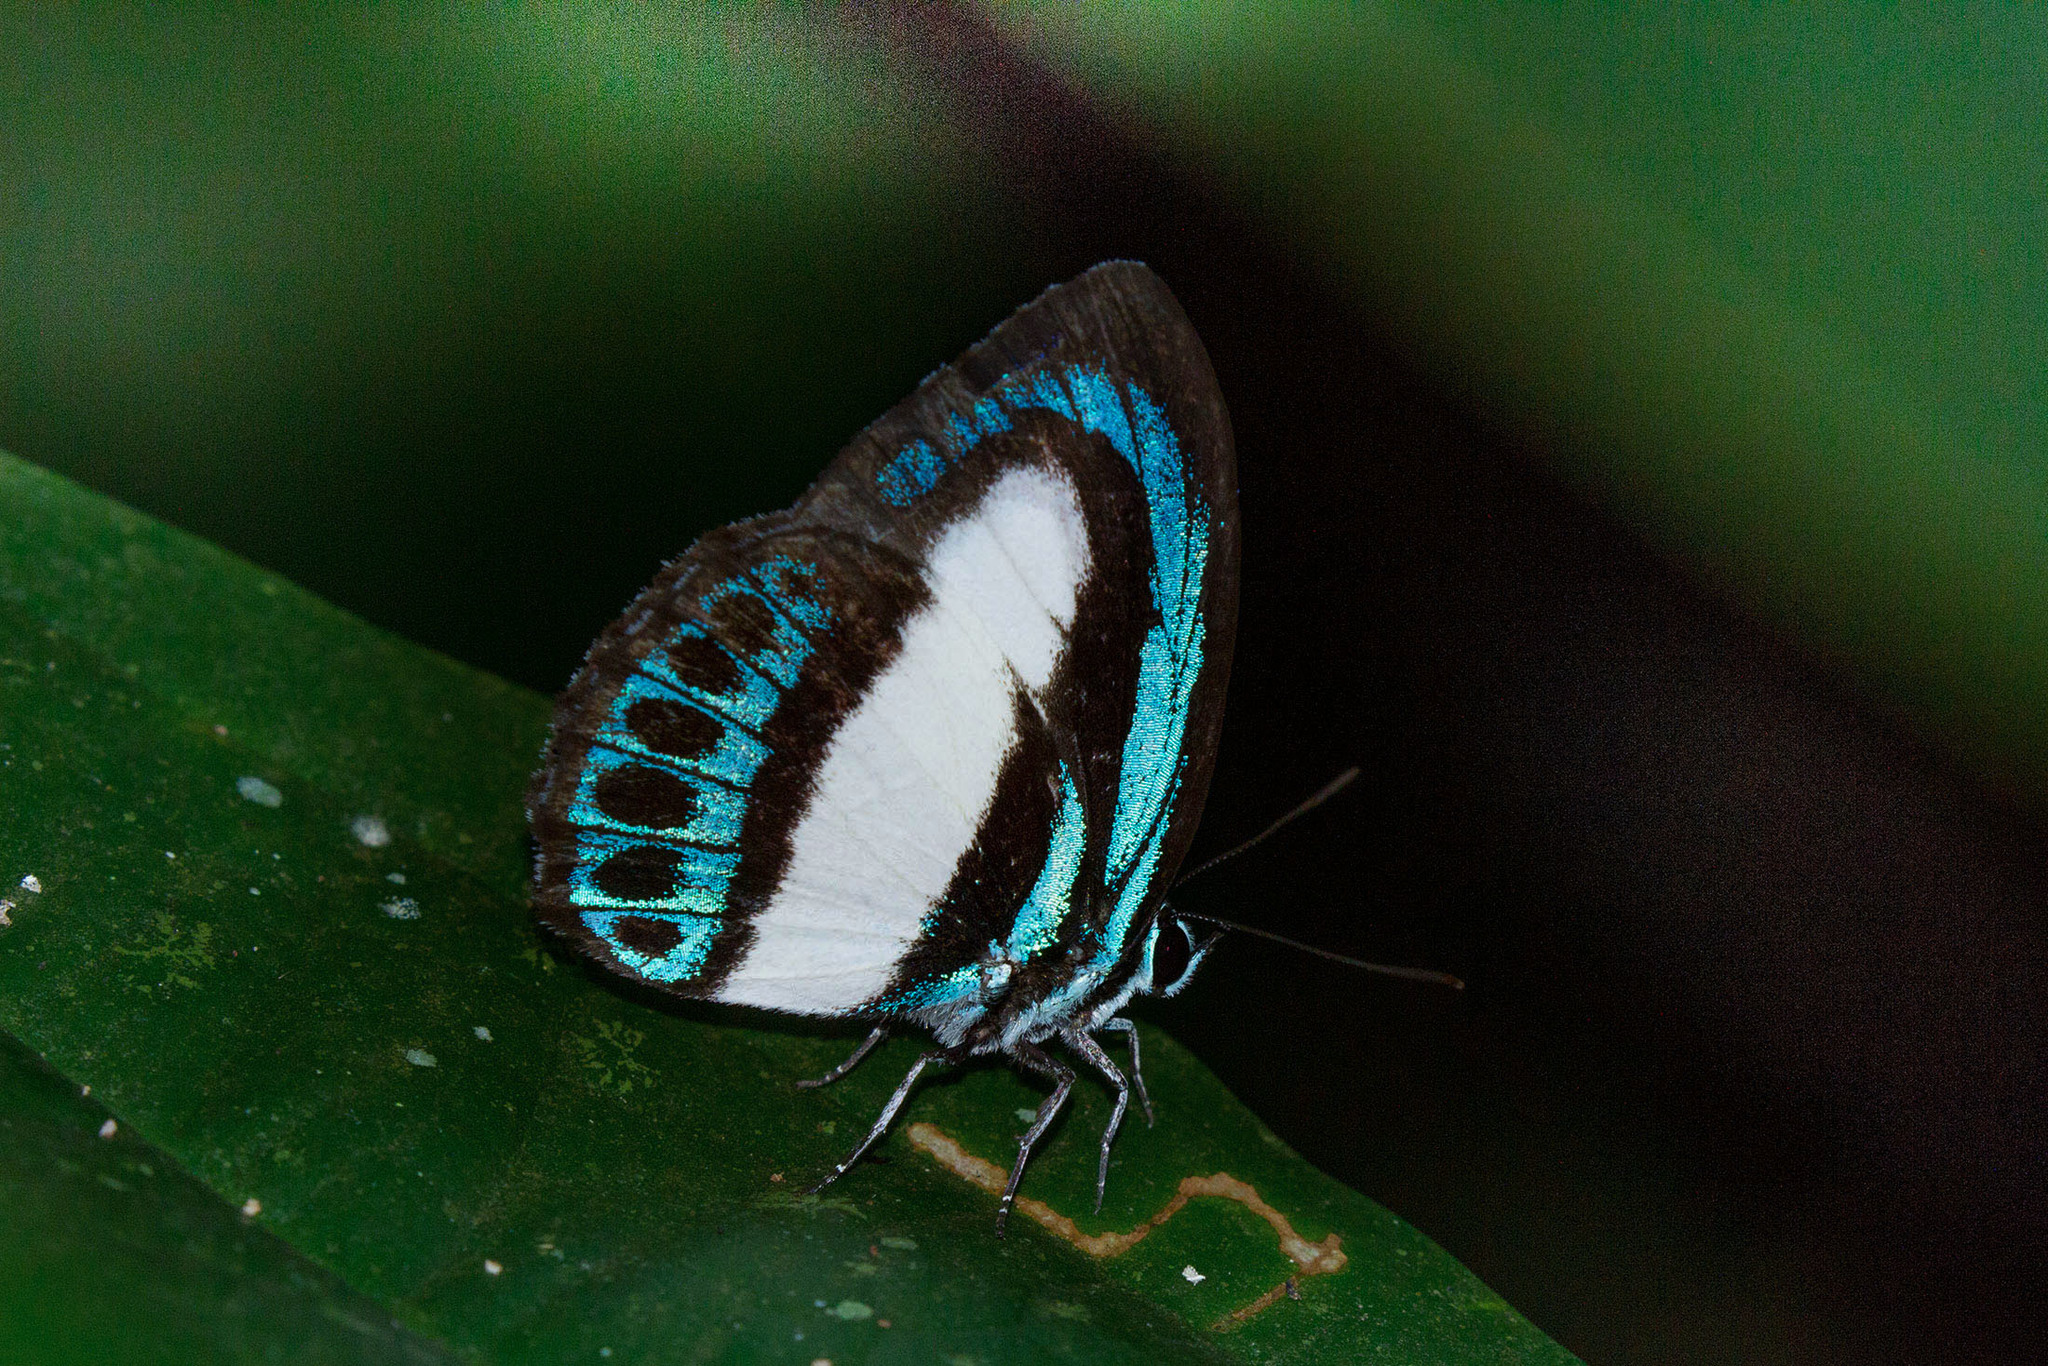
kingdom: Animalia
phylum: Arthropoda
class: Insecta
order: Lepidoptera
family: Lycaenidae
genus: Danis
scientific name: Danis danis
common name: Large green-banded blue
